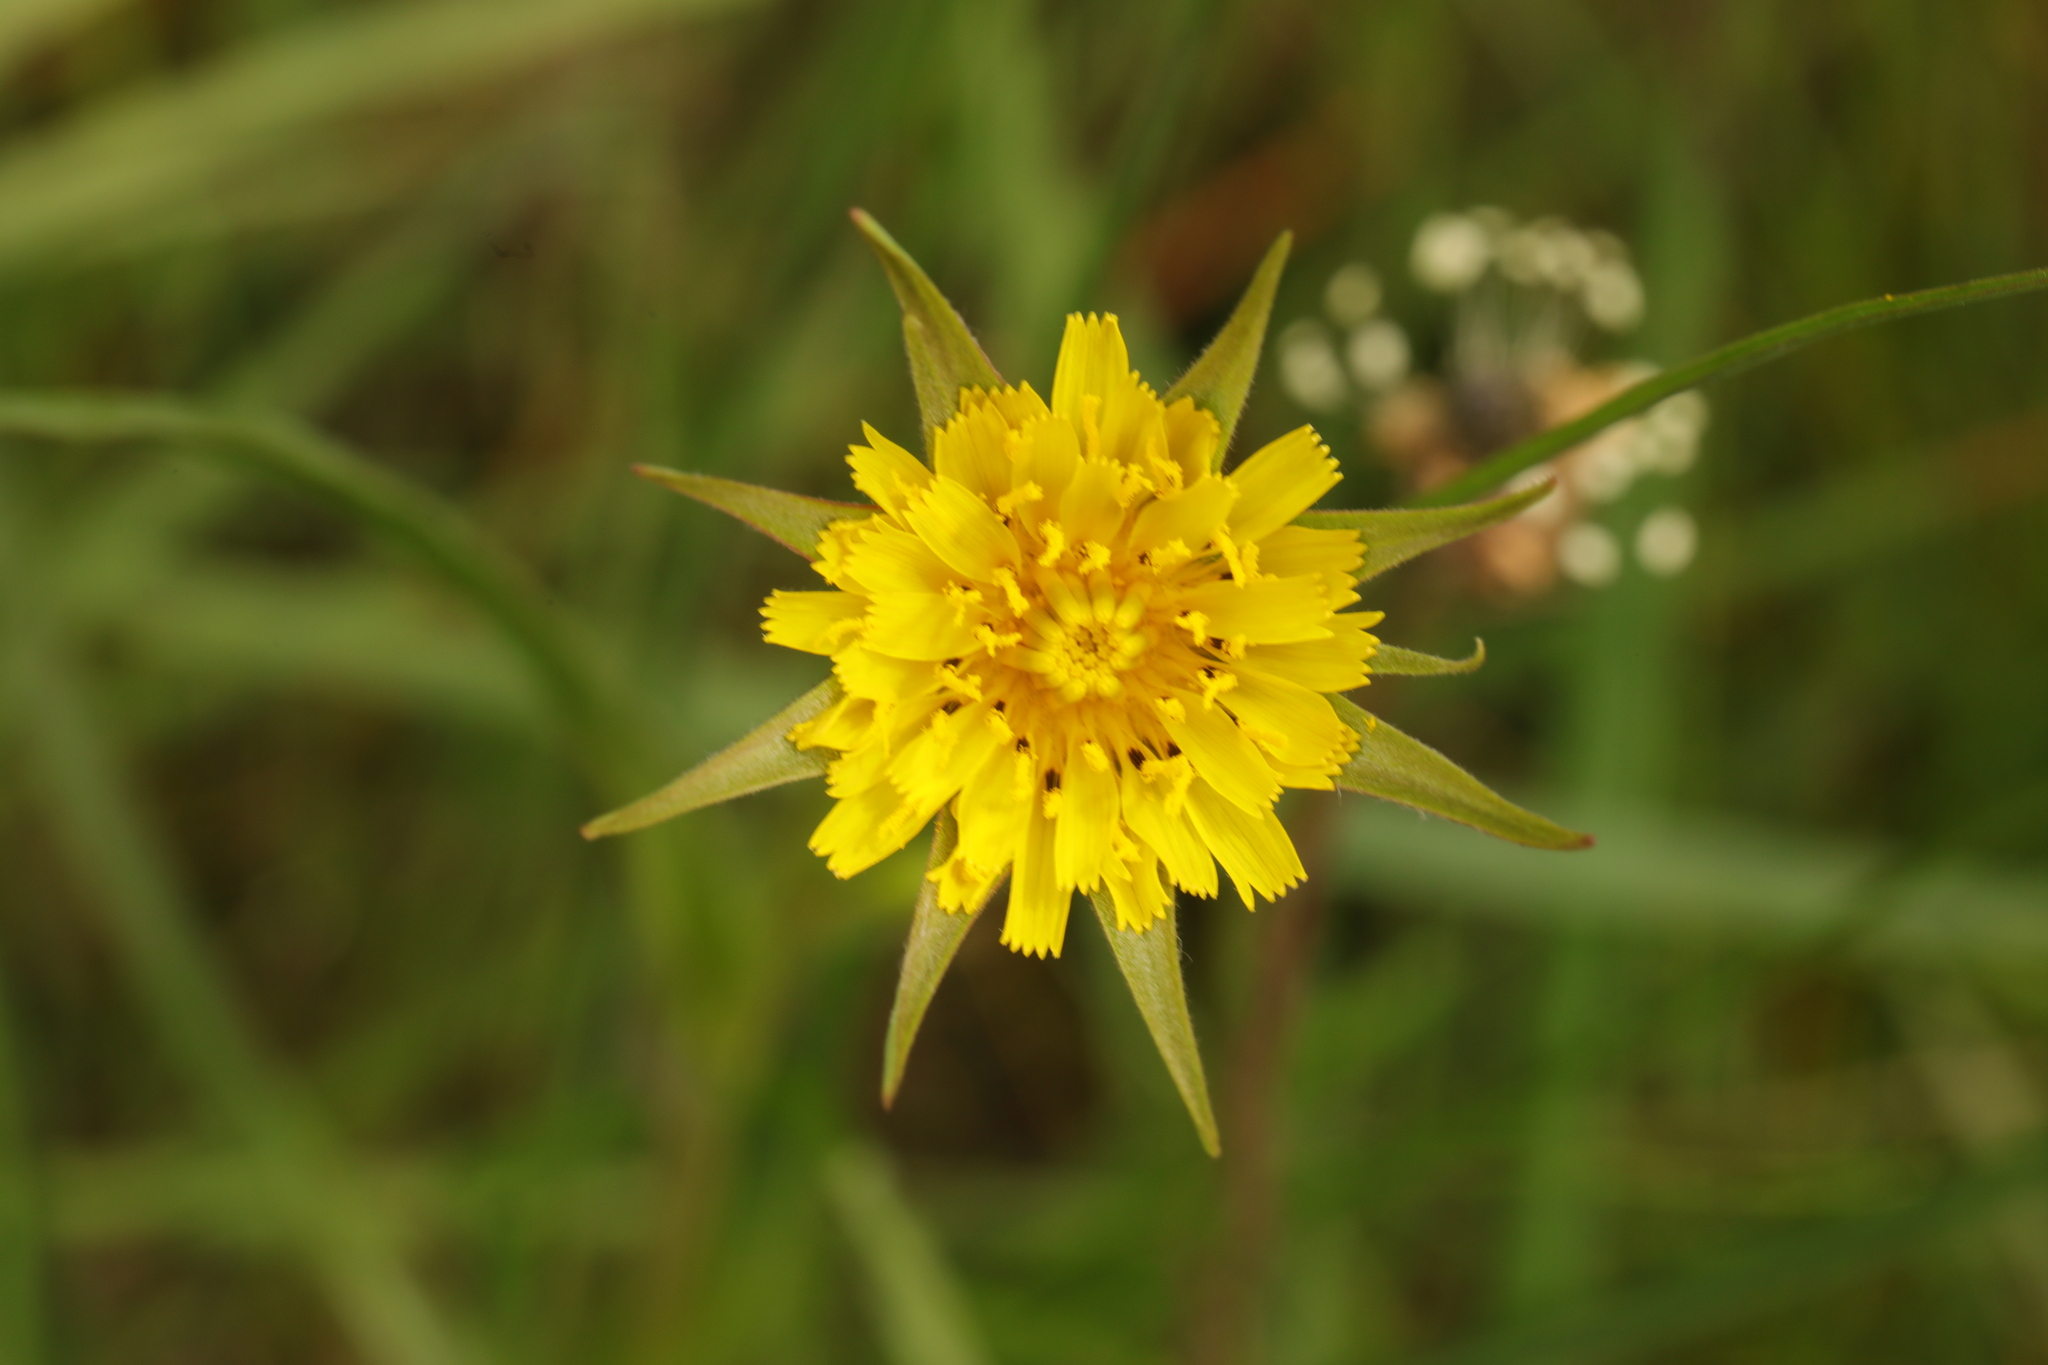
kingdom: Plantae
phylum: Tracheophyta
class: Magnoliopsida
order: Asterales
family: Asteraceae
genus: Tragopogon
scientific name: Tragopogon minor
